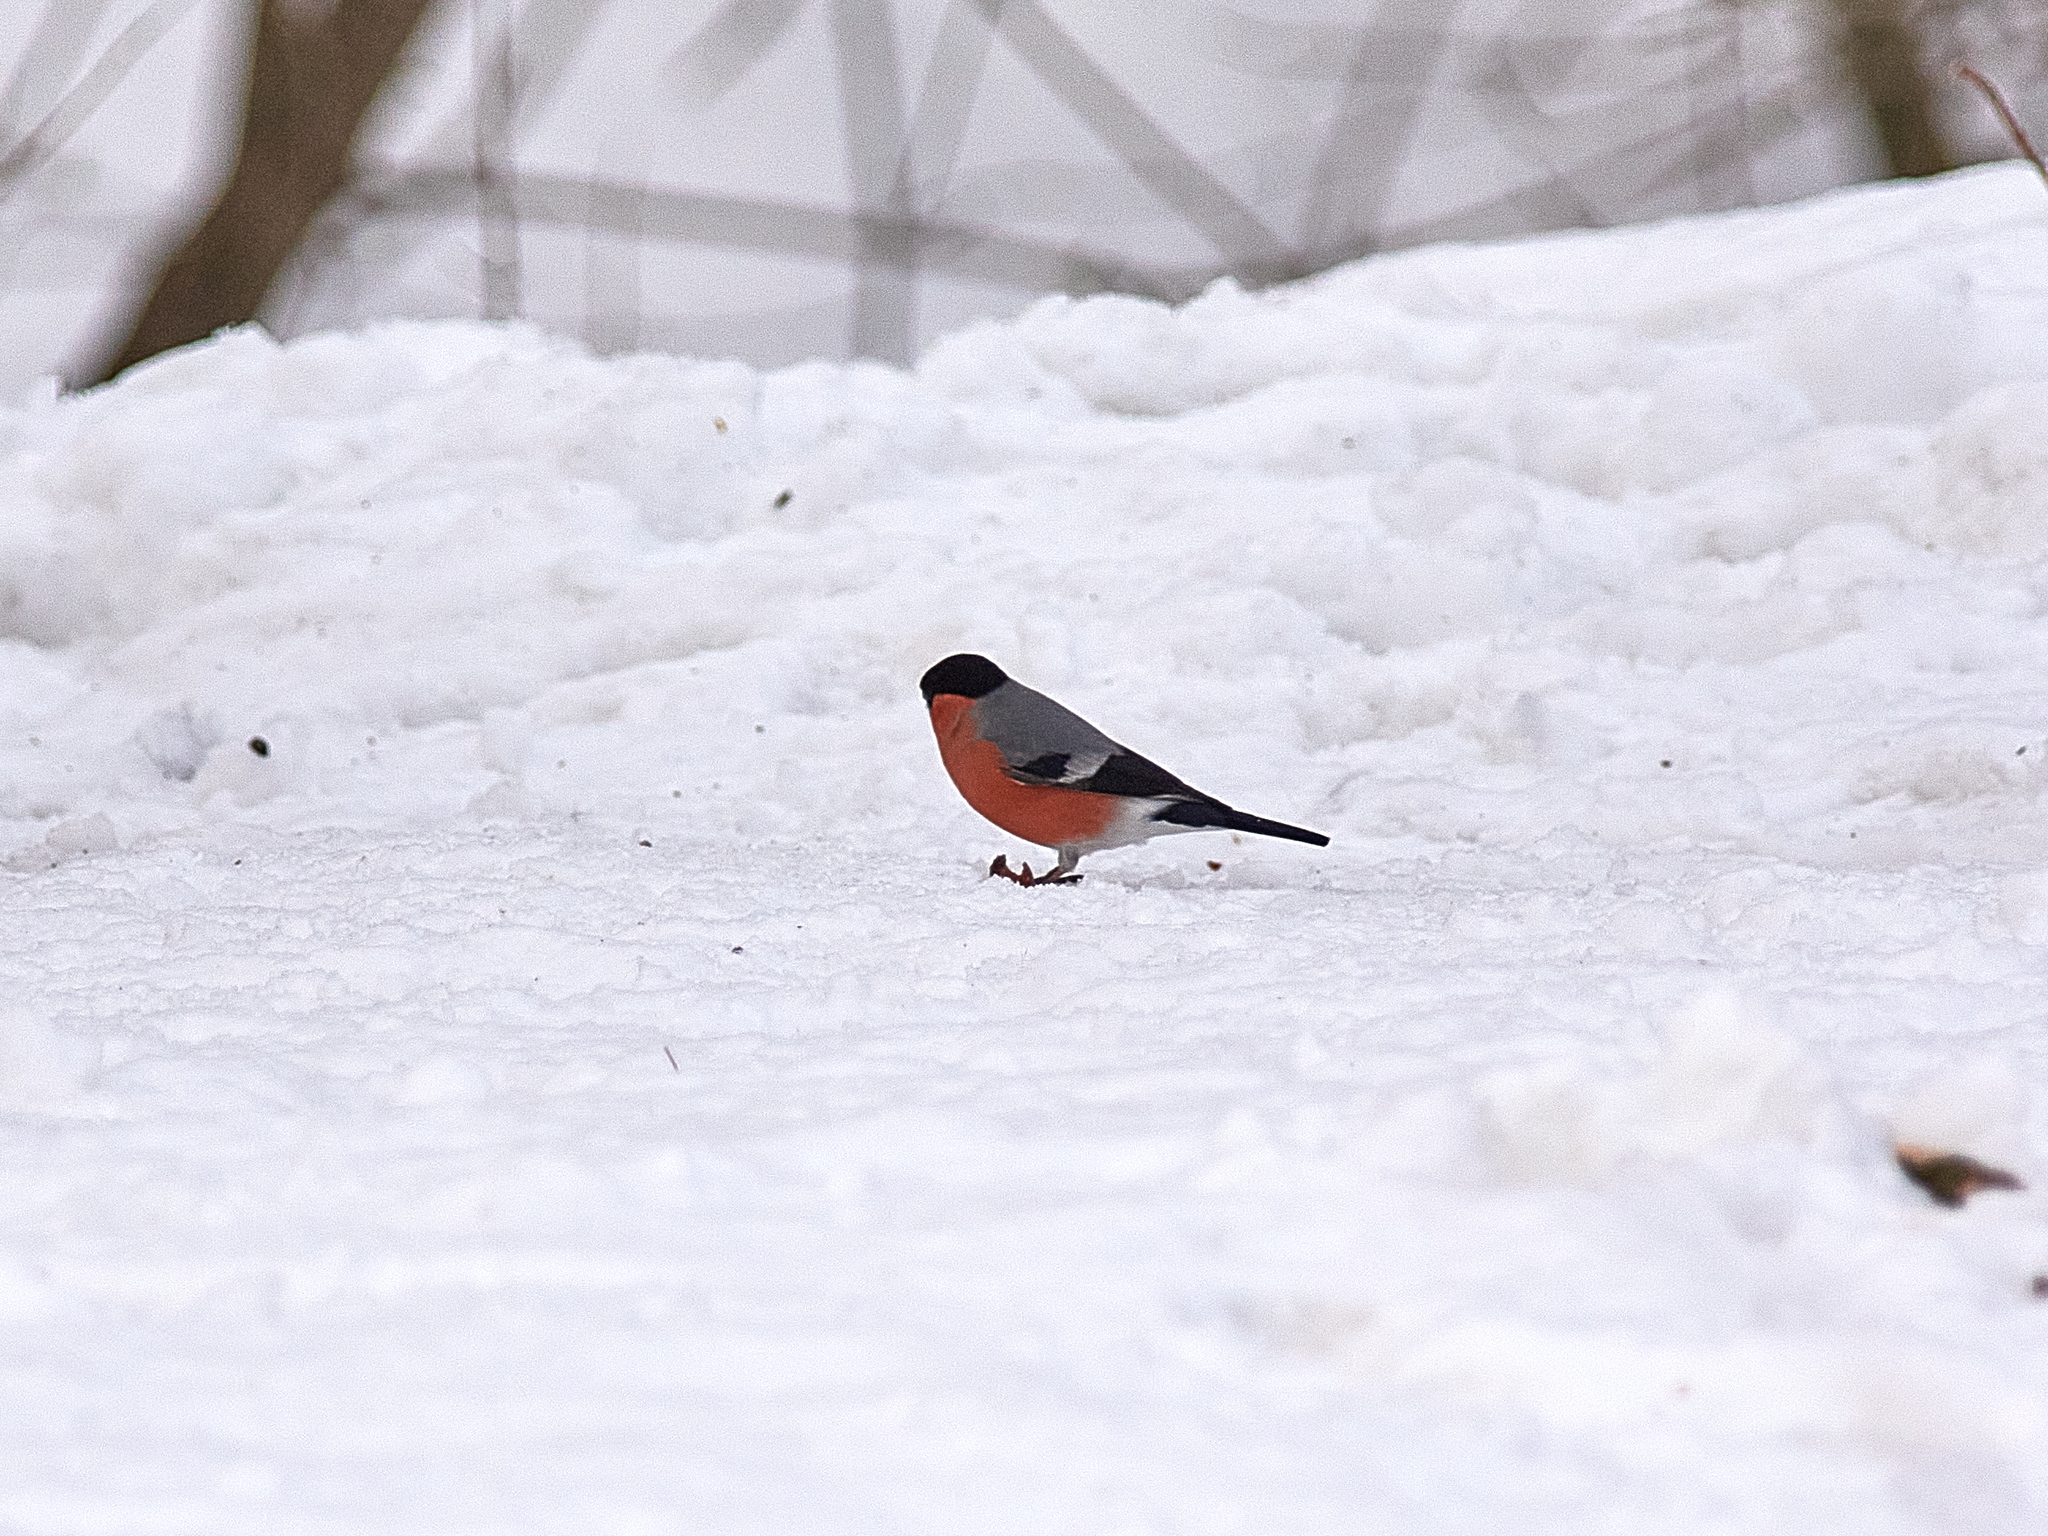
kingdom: Animalia
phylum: Chordata
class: Aves
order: Passeriformes
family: Fringillidae
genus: Pyrrhula
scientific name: Pyrrhula pyrrhula
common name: Eurasian bullfinch
